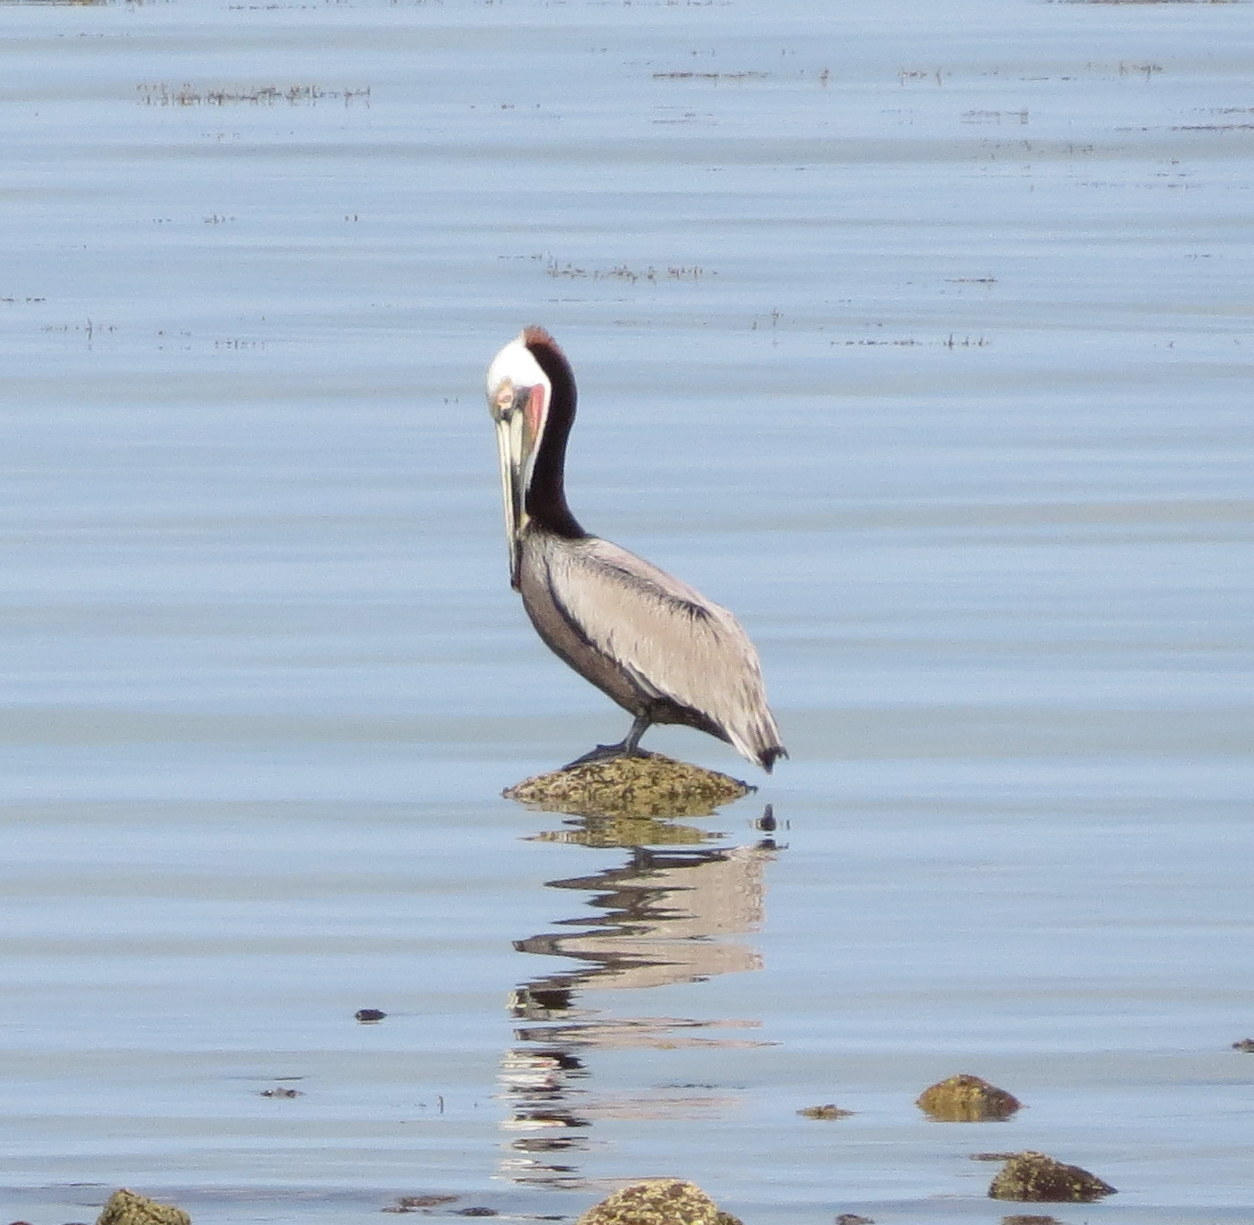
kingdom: Animalia
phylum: Chordata
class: Aves
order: Pelecaniformes
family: Pelecanidae
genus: Pelecanus
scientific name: Pelecanus occidentalis
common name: Brown pelican
